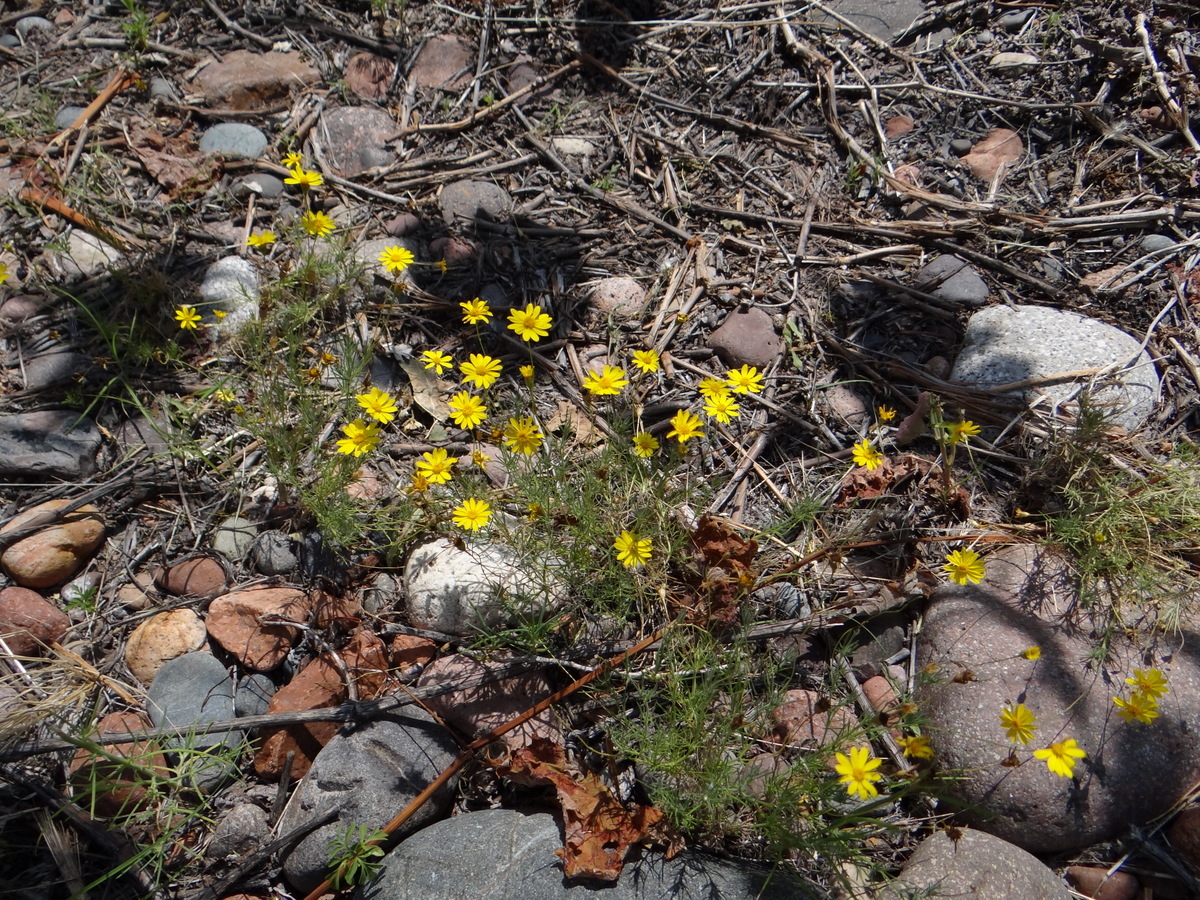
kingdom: Plantae
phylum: Tracheophyta
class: Magnoliopsida
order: Asterales
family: Asteraceae
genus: Thymophylla
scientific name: Thymophylla pentachaeta
